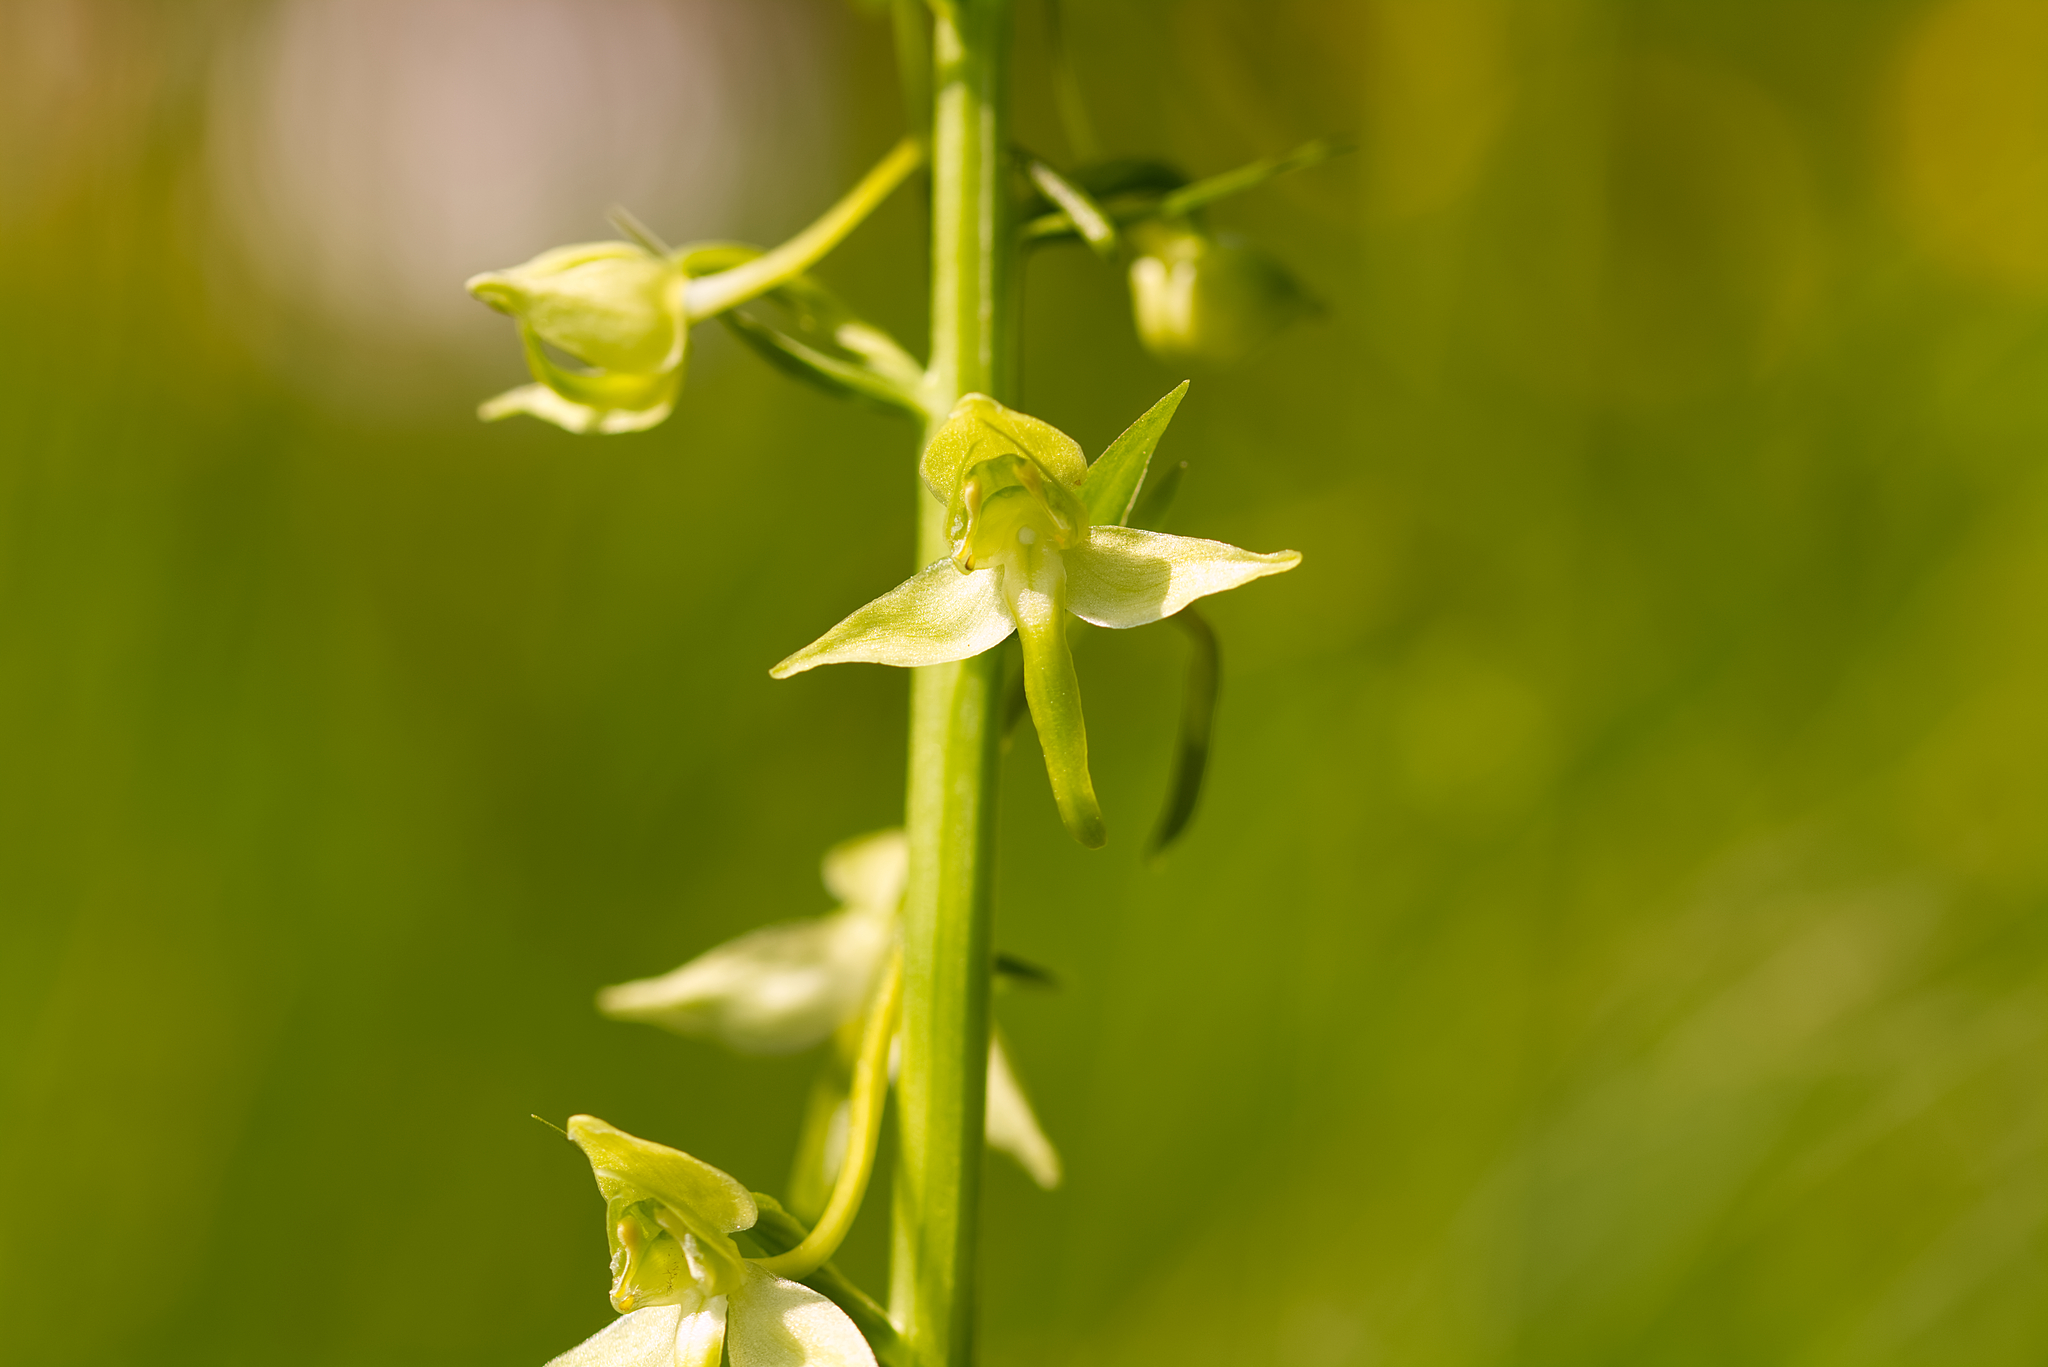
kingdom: Plantae
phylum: Tracheophyta
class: Liliopsida
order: Asparagales
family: Orchidaceae
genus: Platanthera
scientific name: Platanthera chlorantha
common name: Greater butterfly-orchid
